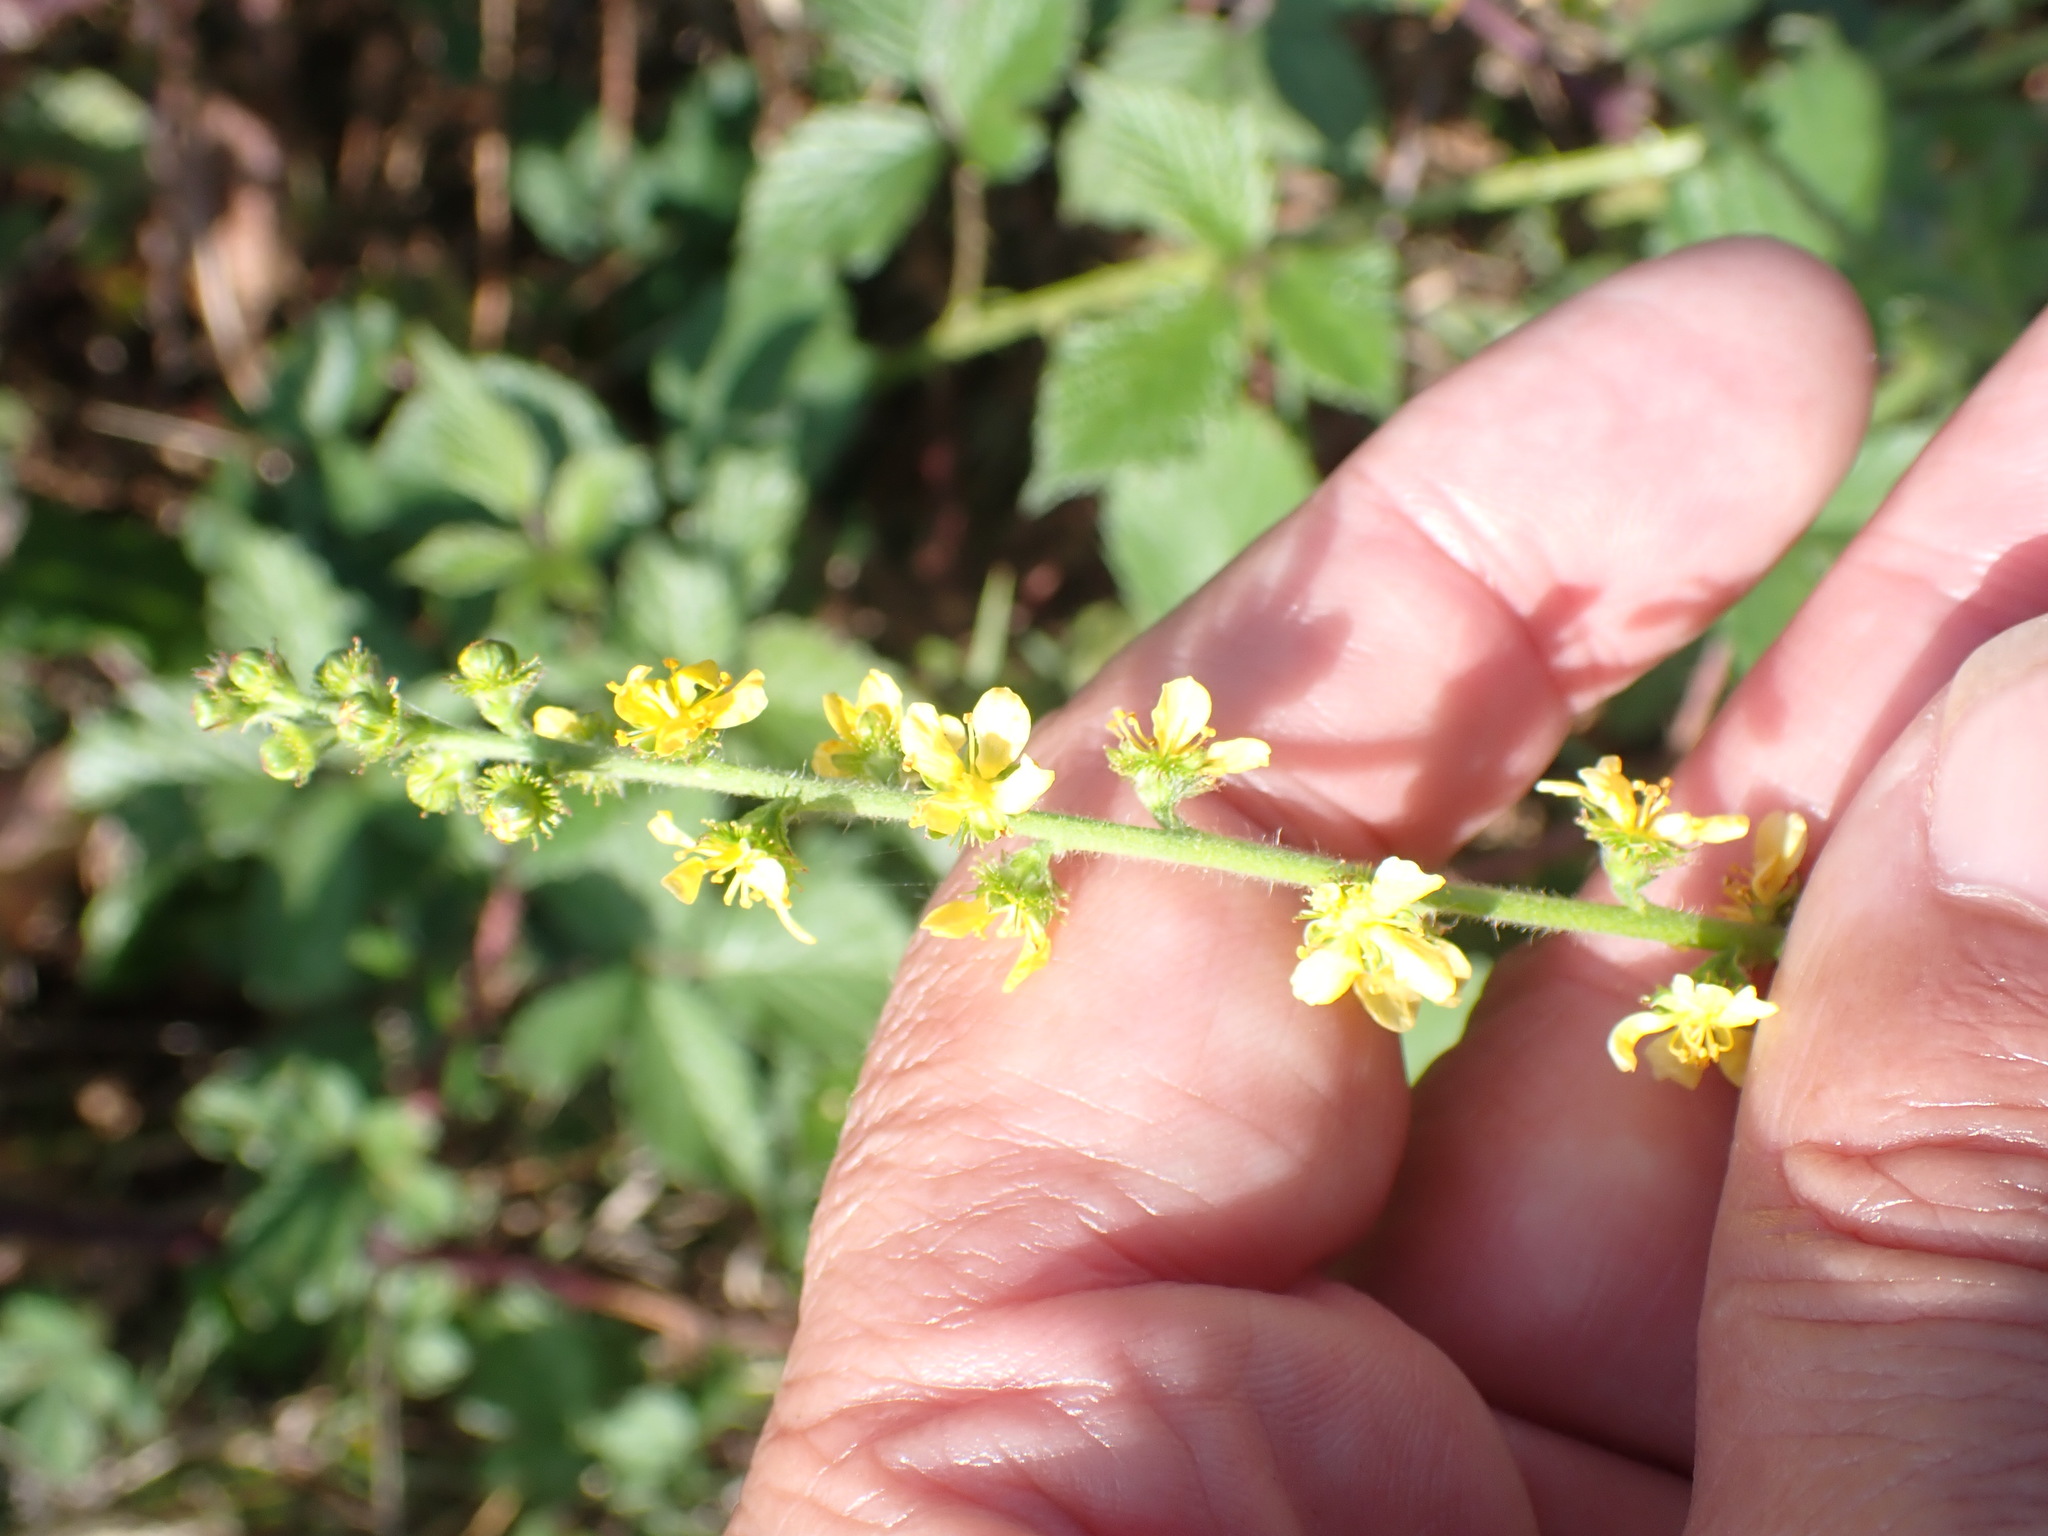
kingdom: Plantae
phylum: Tracheophyta
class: Magnoliopsida
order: Rosales
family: Rosaceae
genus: Agrimonia
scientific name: Agrimonia eupatoria
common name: Agrimony
